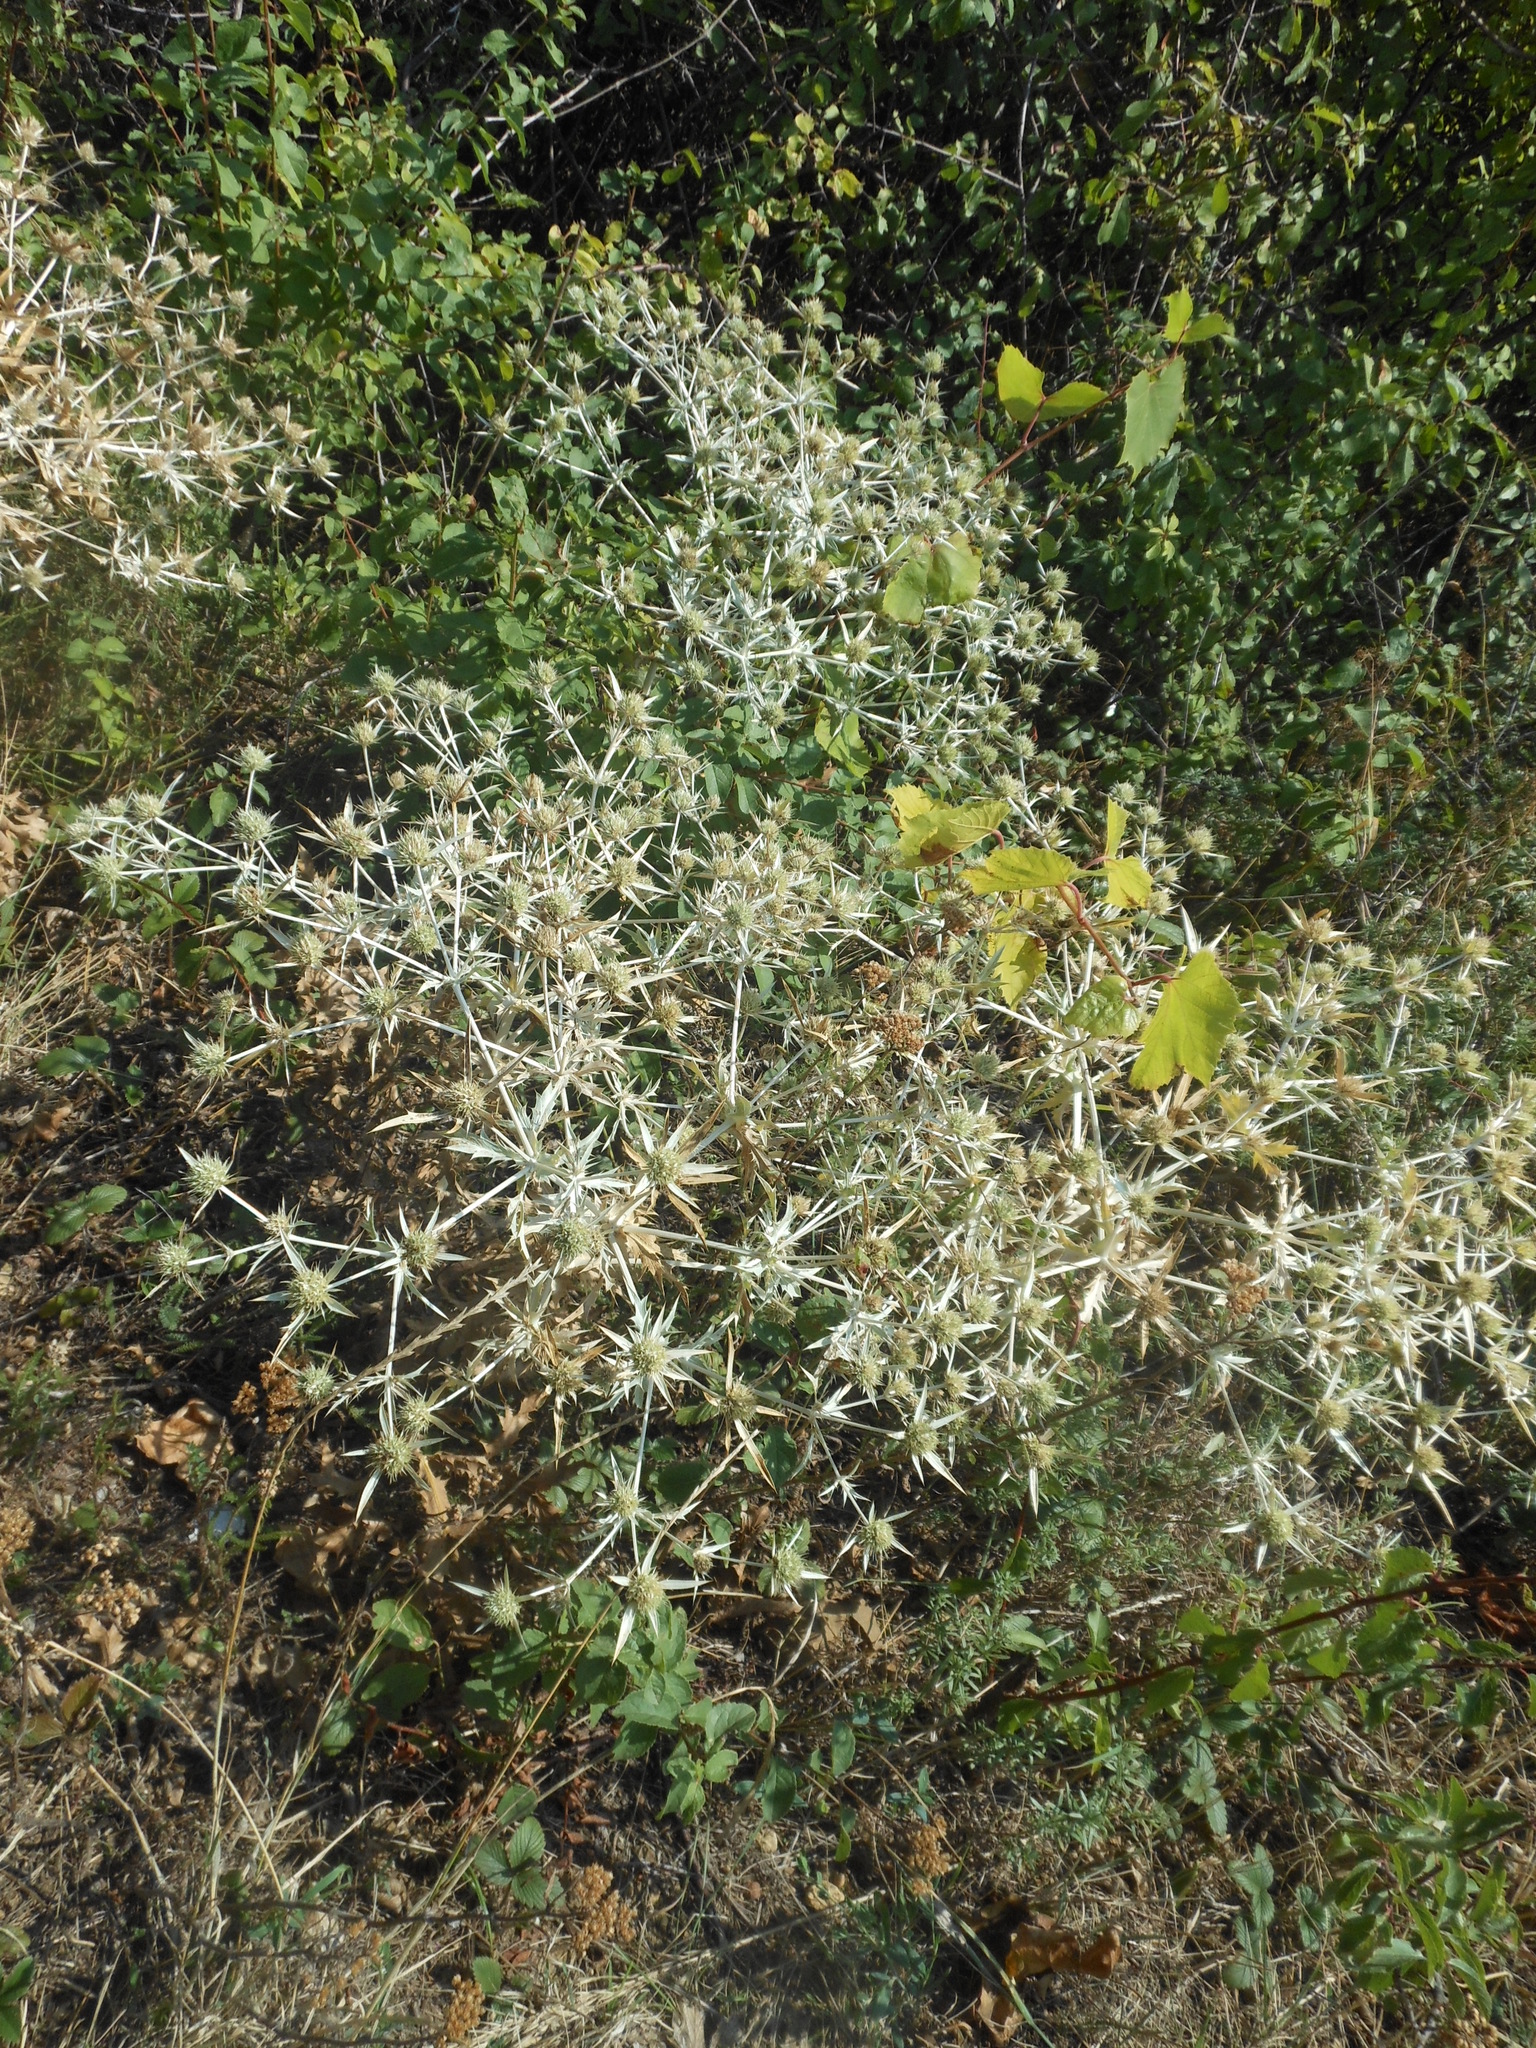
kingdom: Plantae
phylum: Tracheophyta
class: Magnoliopsida
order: Apiales
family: Apiaceae
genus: Eryngium
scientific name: Eryngium campestre
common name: Field eryngo
